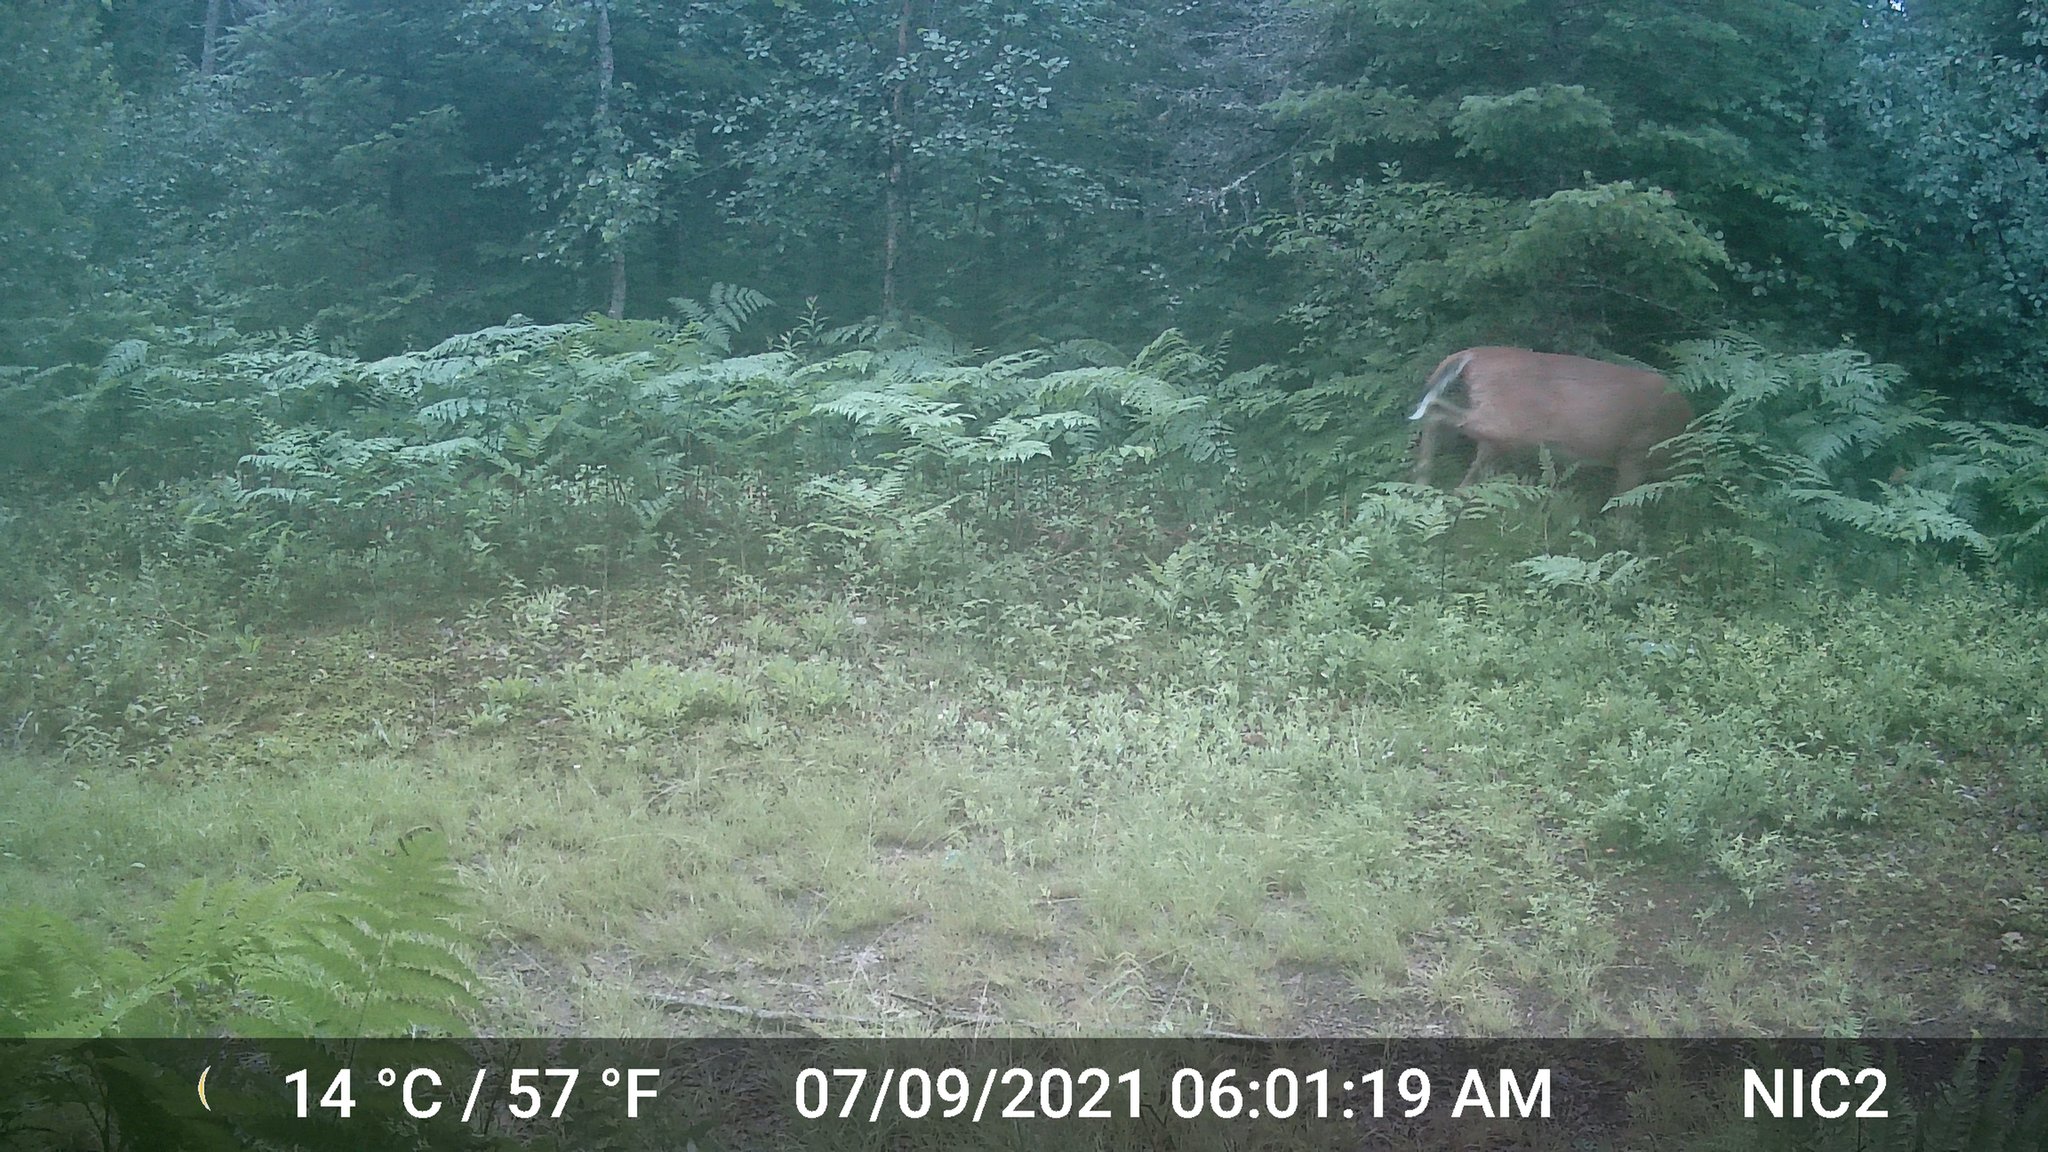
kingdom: Animalia
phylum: Chordata
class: Mammalia
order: Artiodactyla
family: Cervidae
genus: Odocoileus
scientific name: Odocoileus virginianus
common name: White-tailed deer
